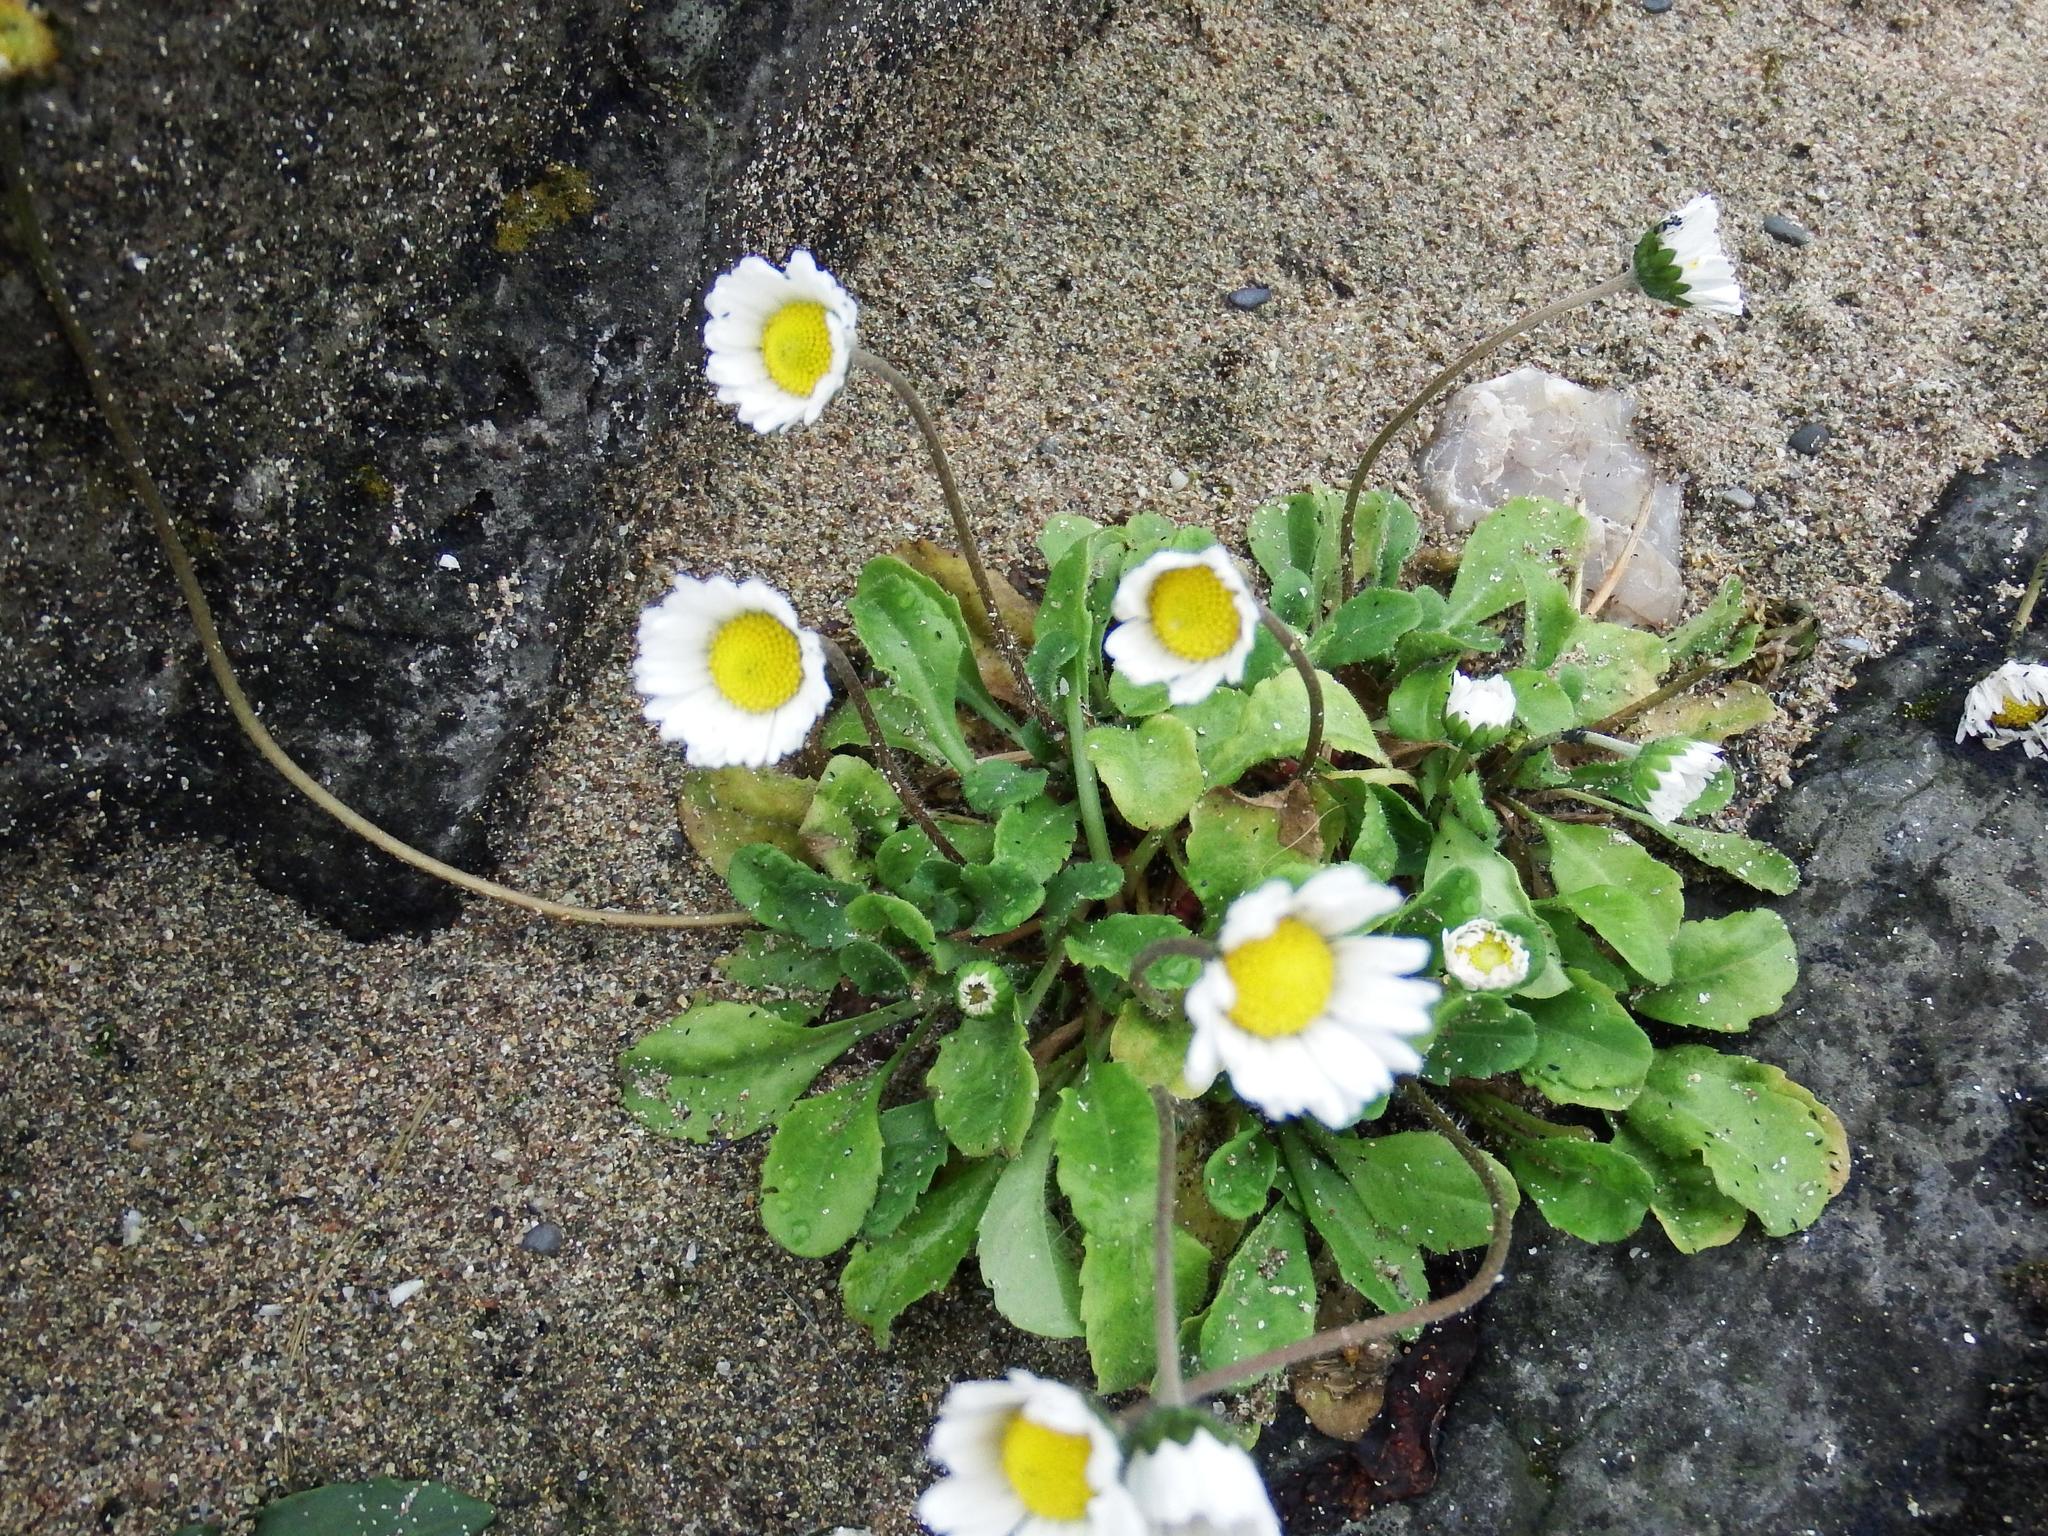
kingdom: Plantae
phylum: Tracheophyta
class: Magnoliopsida
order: Asterales
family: Asteraceae
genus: Bellis
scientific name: Bellis perennis
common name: Lawndaisy
